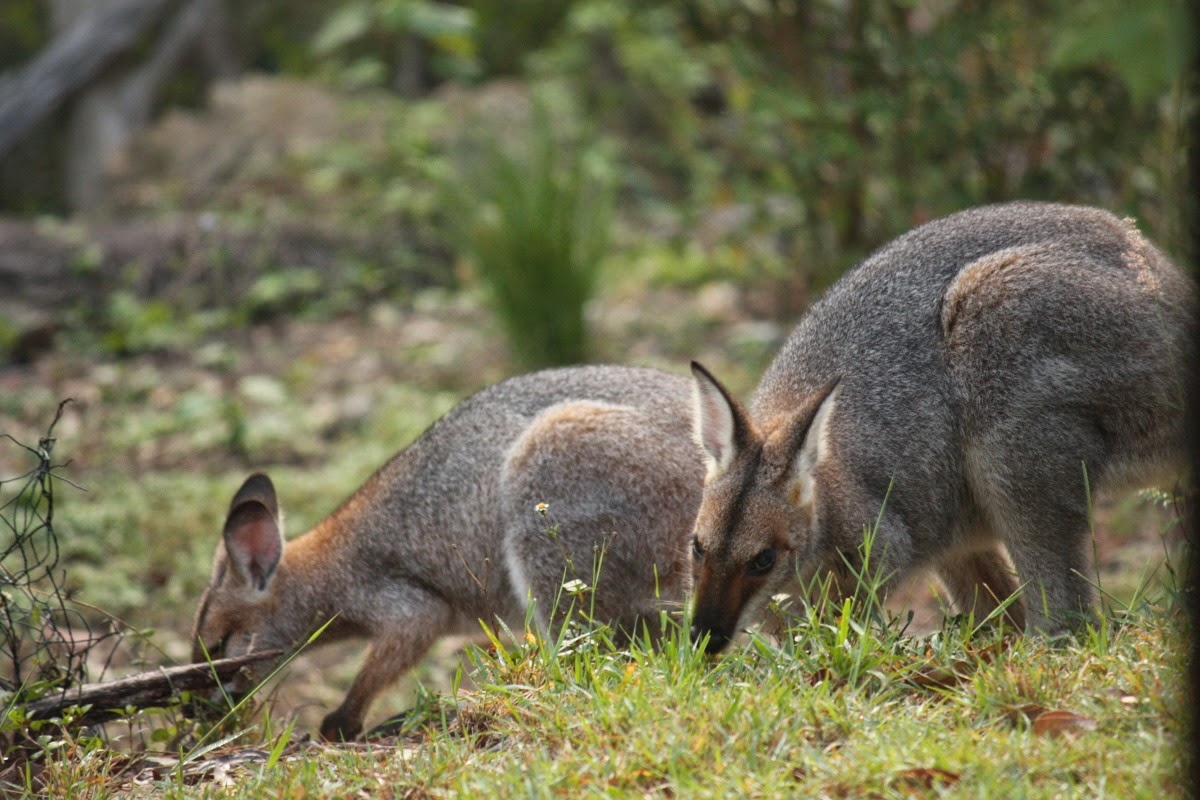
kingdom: Animalia
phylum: Chordata
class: Mammalia
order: Diprotodontia
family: Macropodidae
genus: Notamacropus
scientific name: Notamacropus rufogriseus
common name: Red-necked wallaby
